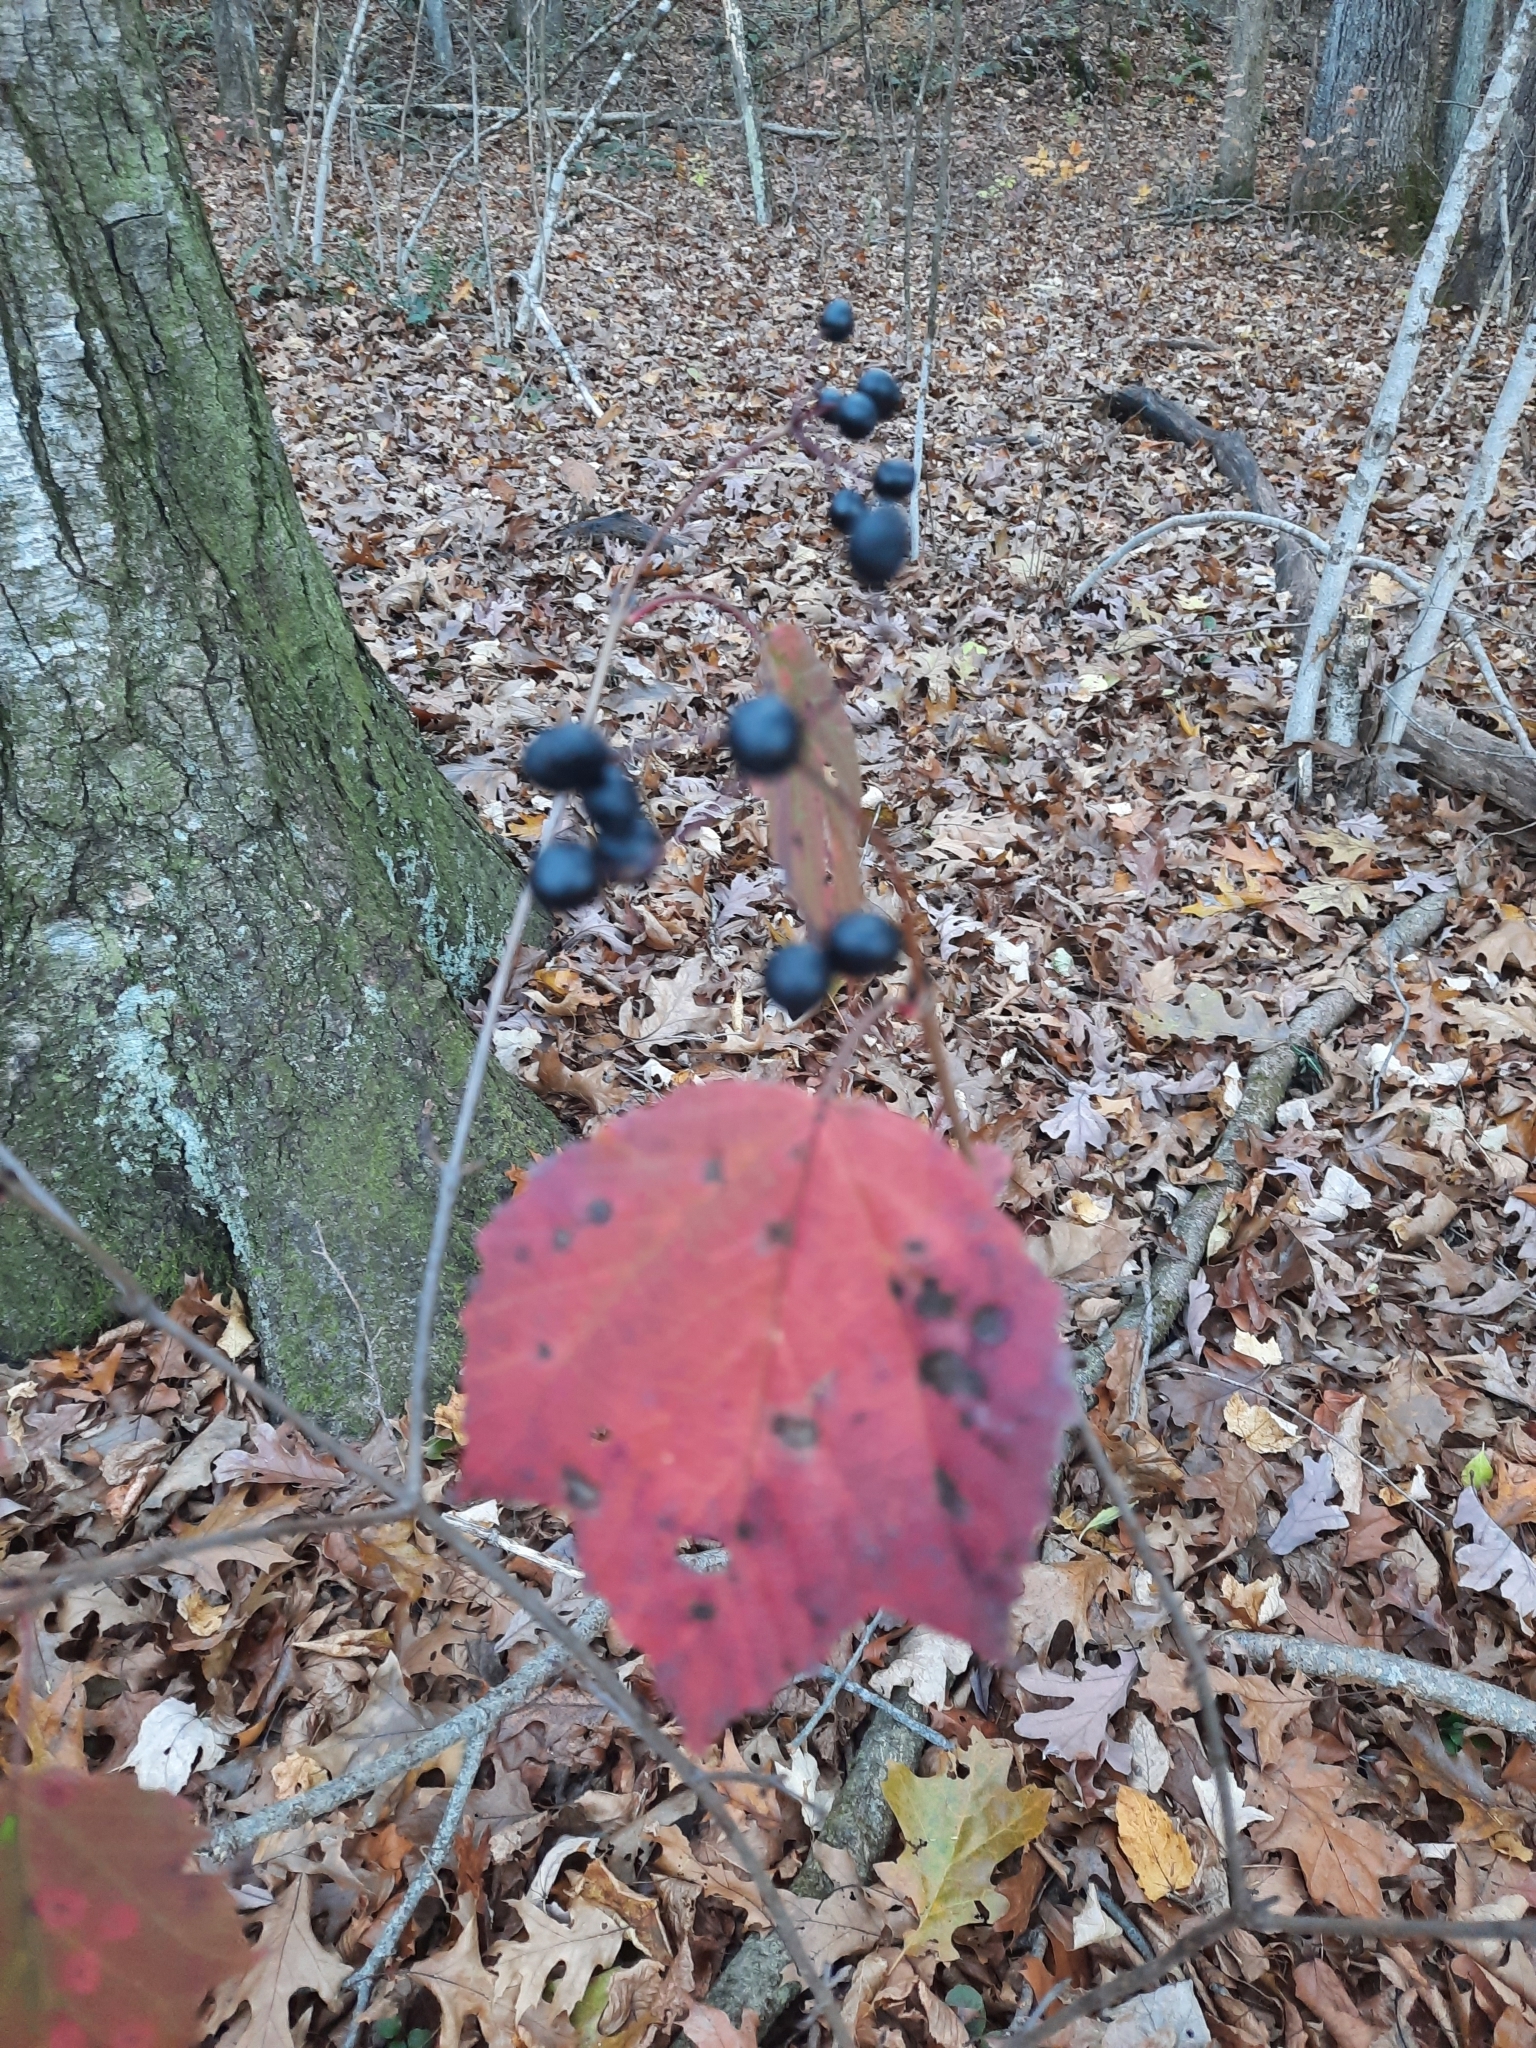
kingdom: Plantae
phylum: Tracheophyta
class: Magnoliopsida
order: Dipsacales
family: Viburnaceae
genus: Viburnum
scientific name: Viburnum acerifolium
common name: Dockmackie
